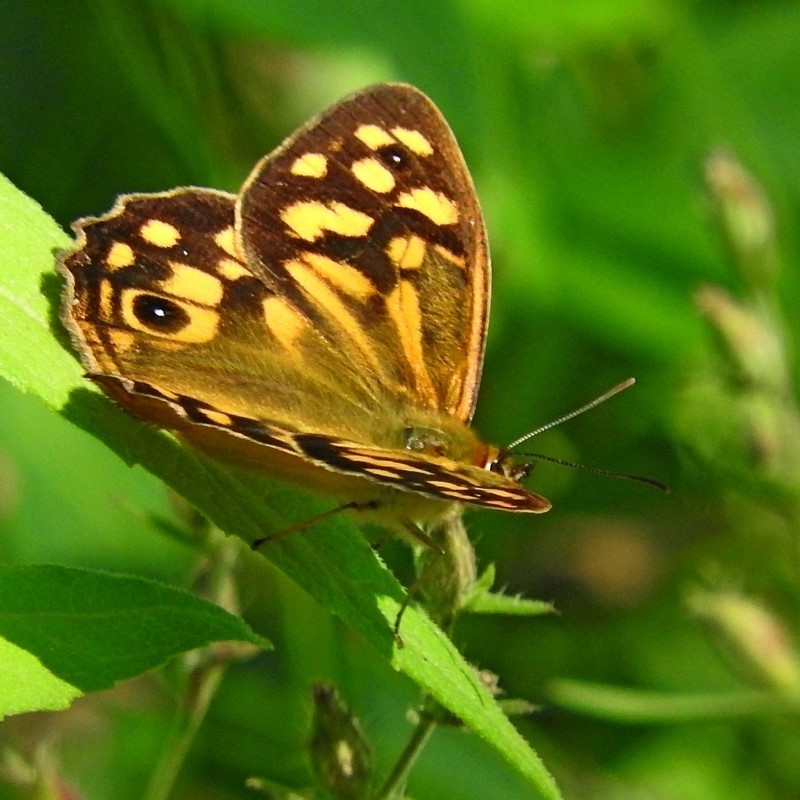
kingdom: Animalia
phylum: Arthropoda
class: Insecta
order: Lepidoptera
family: Nymphalidae
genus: Heteronympha
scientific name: Heteronympha paradelpha
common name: Spotted brown
